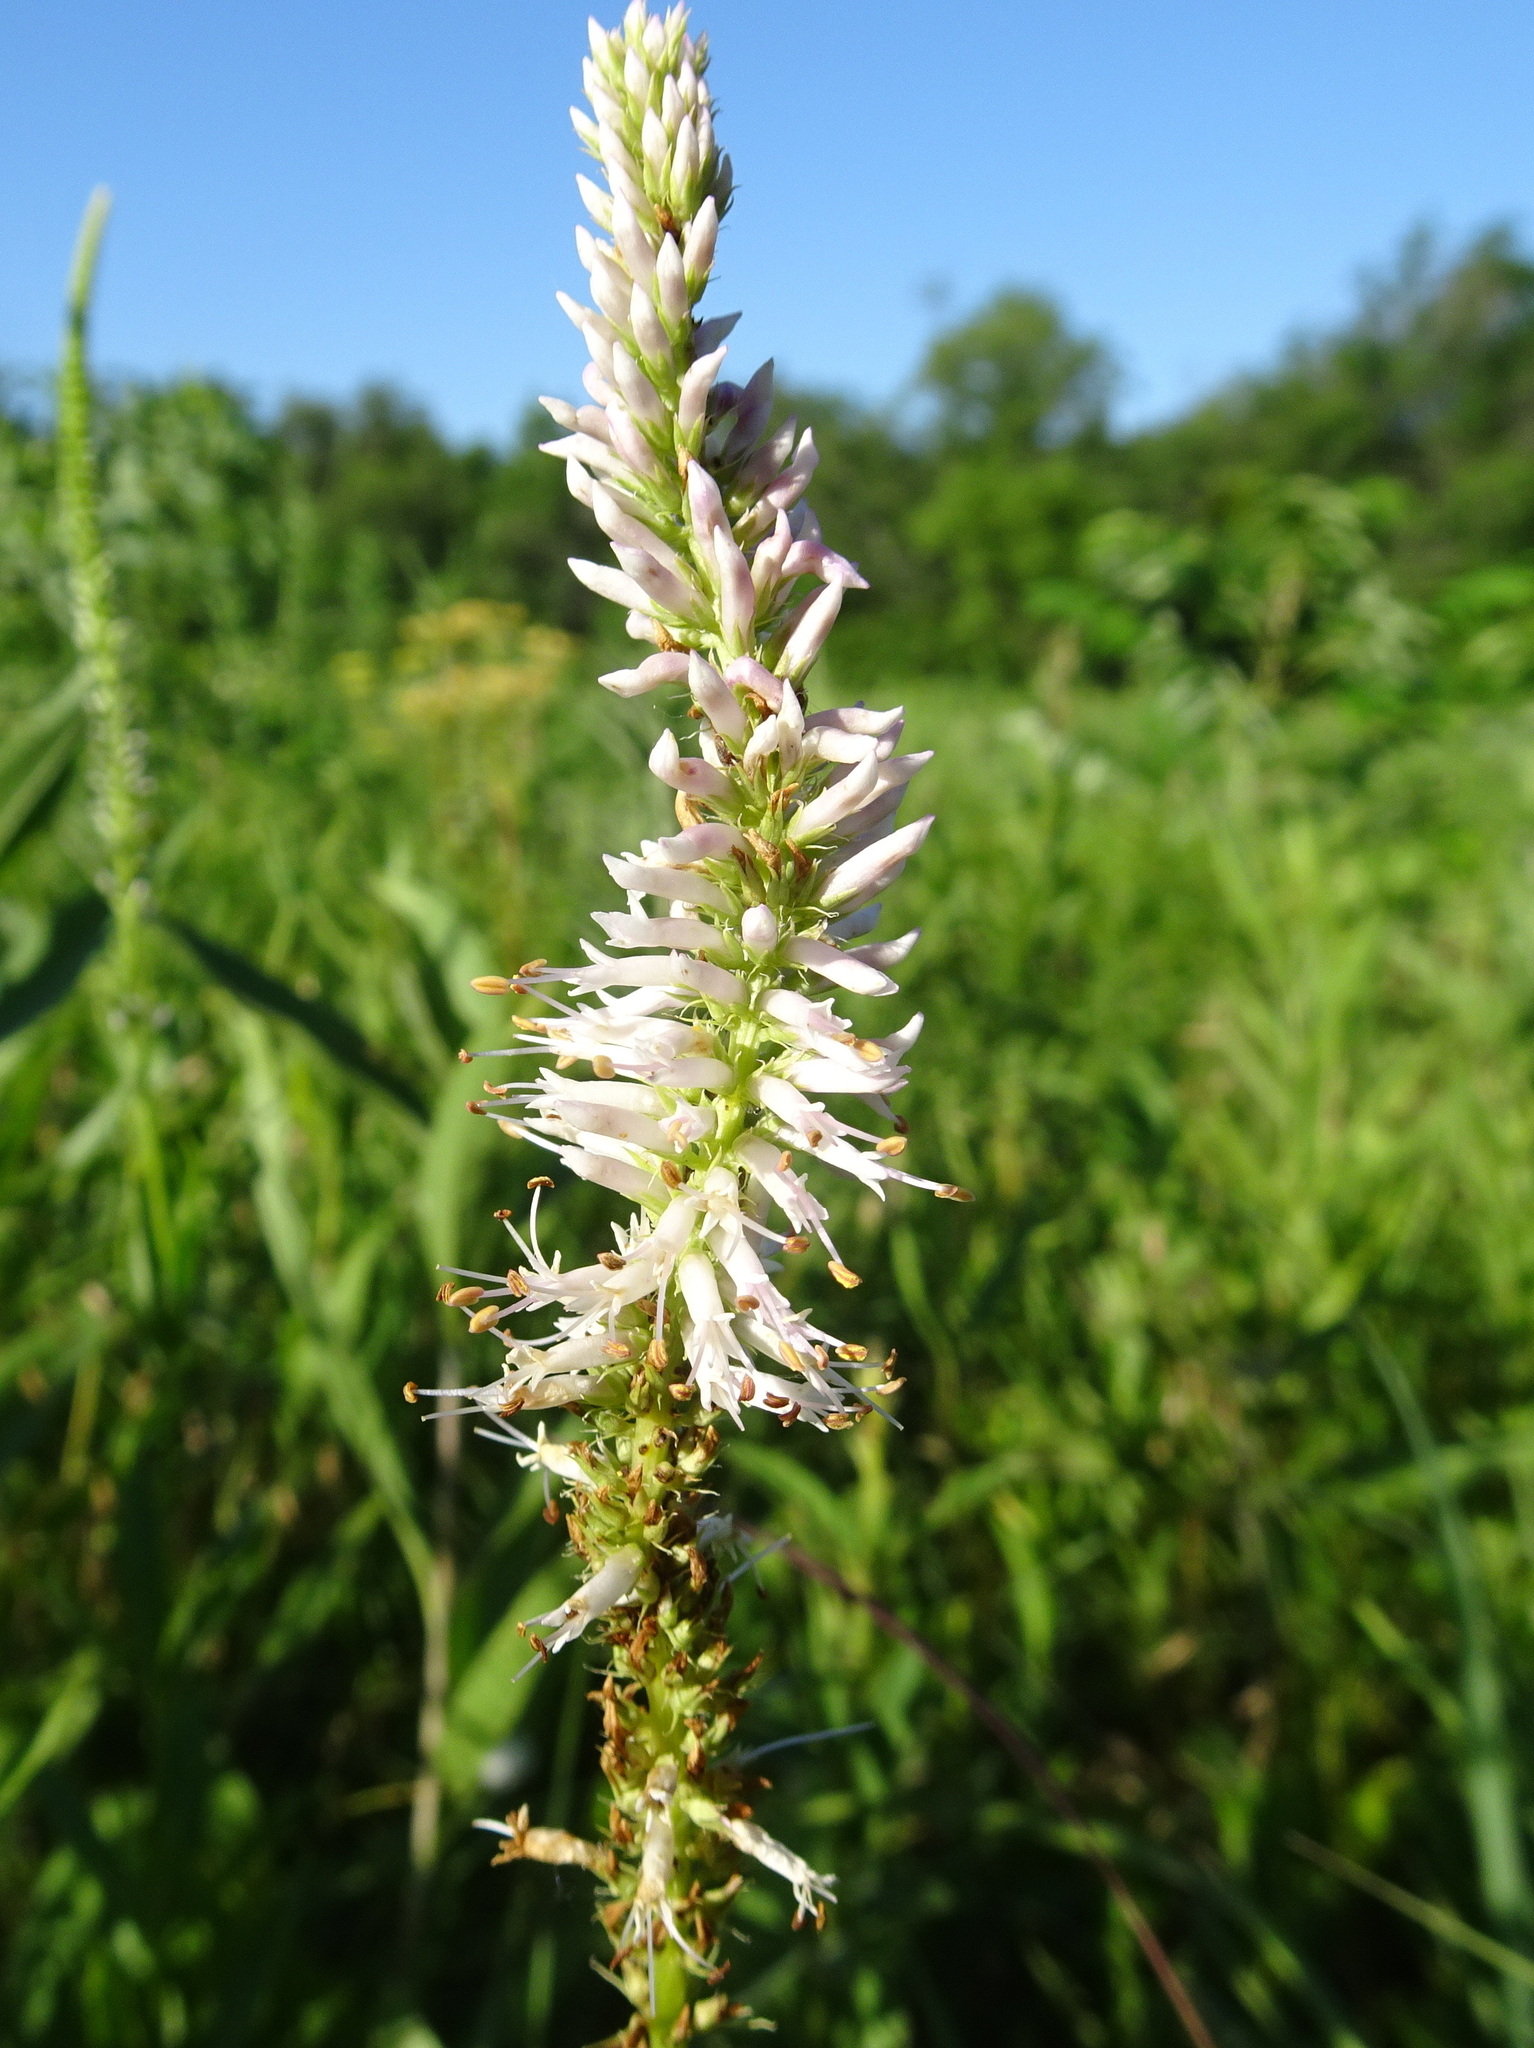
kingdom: Plantae
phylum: Tracheophyta
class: Magnoliopsida
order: Lamiales
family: Plantaginaceae
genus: Veronicastrum
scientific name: Veronicastrum virginicum
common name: Blackroot
